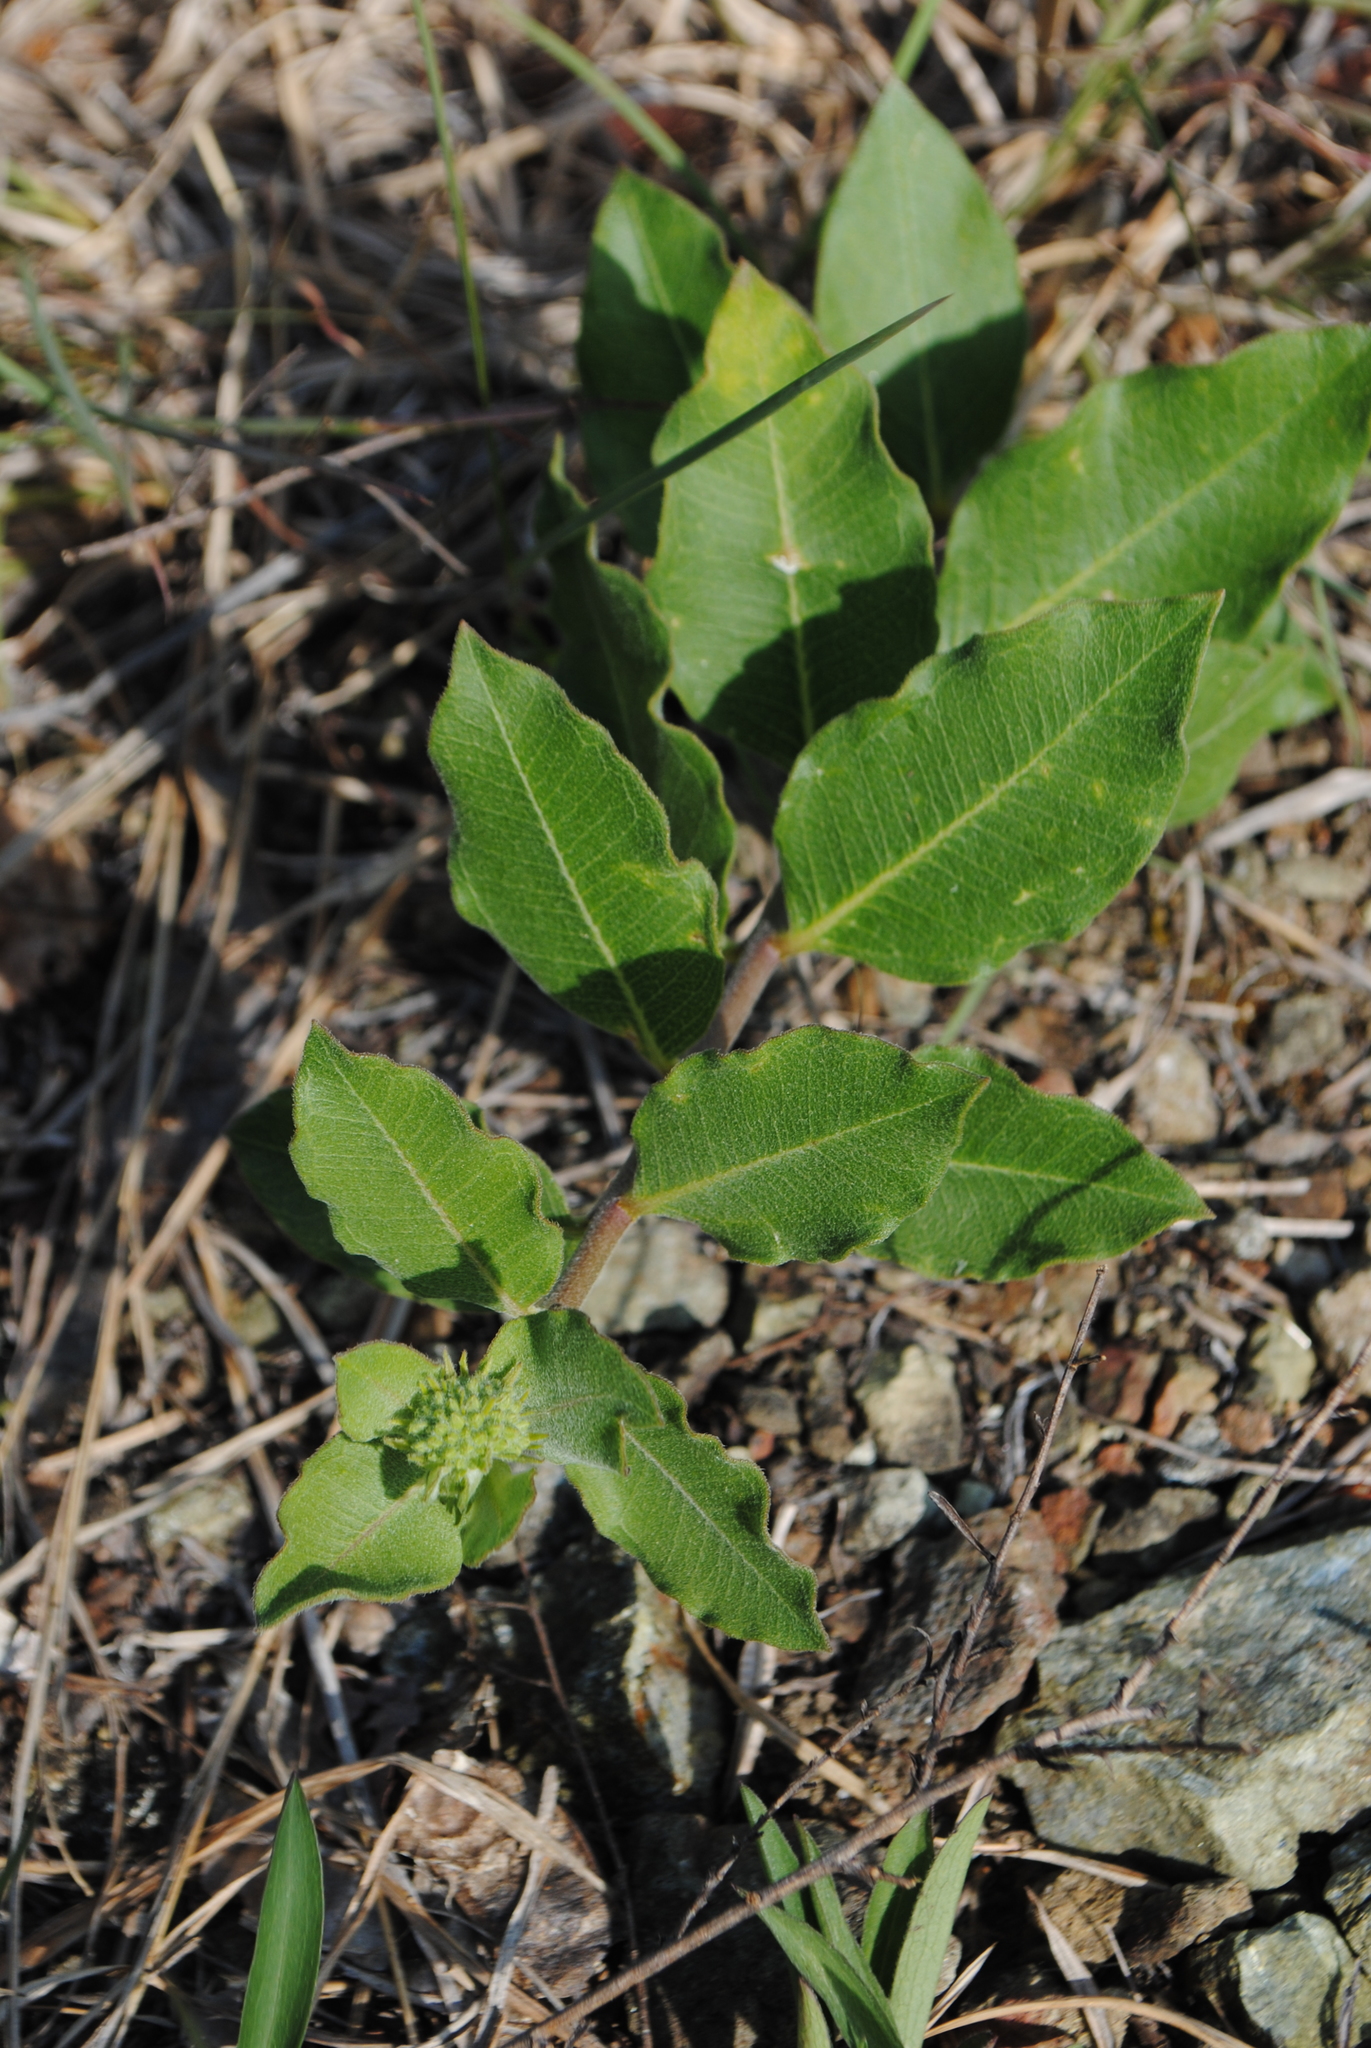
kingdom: Plantae
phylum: Tracheophyta
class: Magnoliopsida
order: Gentianales
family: Apocynaceae
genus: Asclepias
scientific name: Asclepias viridiflora
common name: Green comet milkweed
